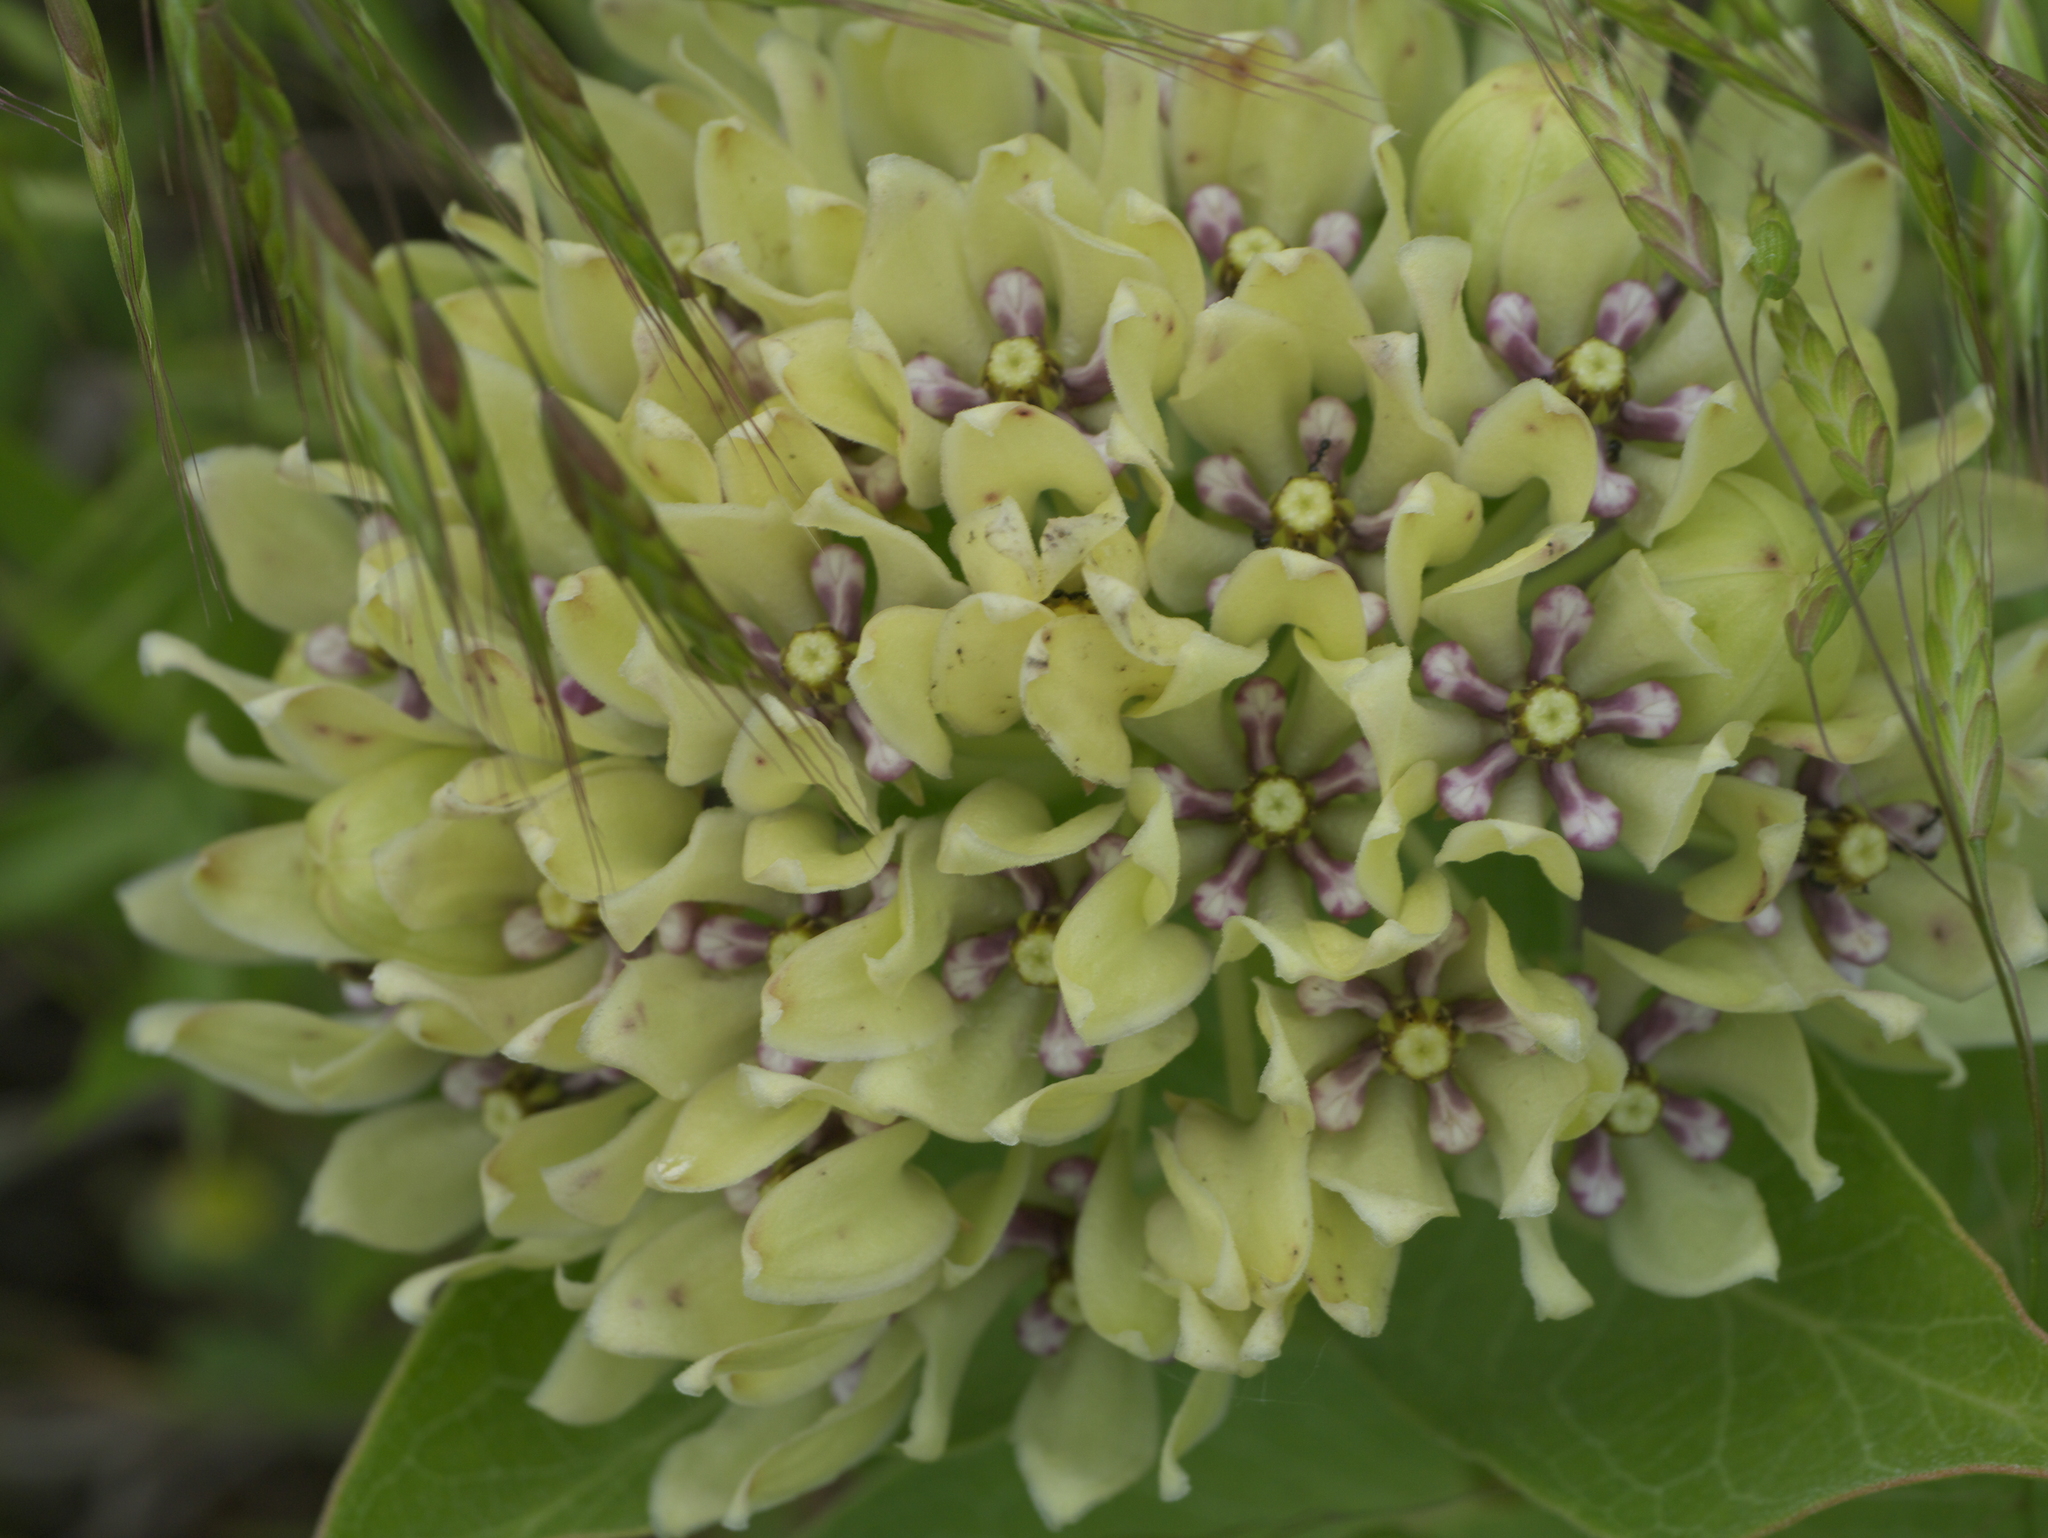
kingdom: Plantae
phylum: Tracheophyta
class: Magnoliopsida
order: Gentianales
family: Apocynaceae
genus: Asclepias
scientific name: Asclepias viridis
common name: Antelope-horns
